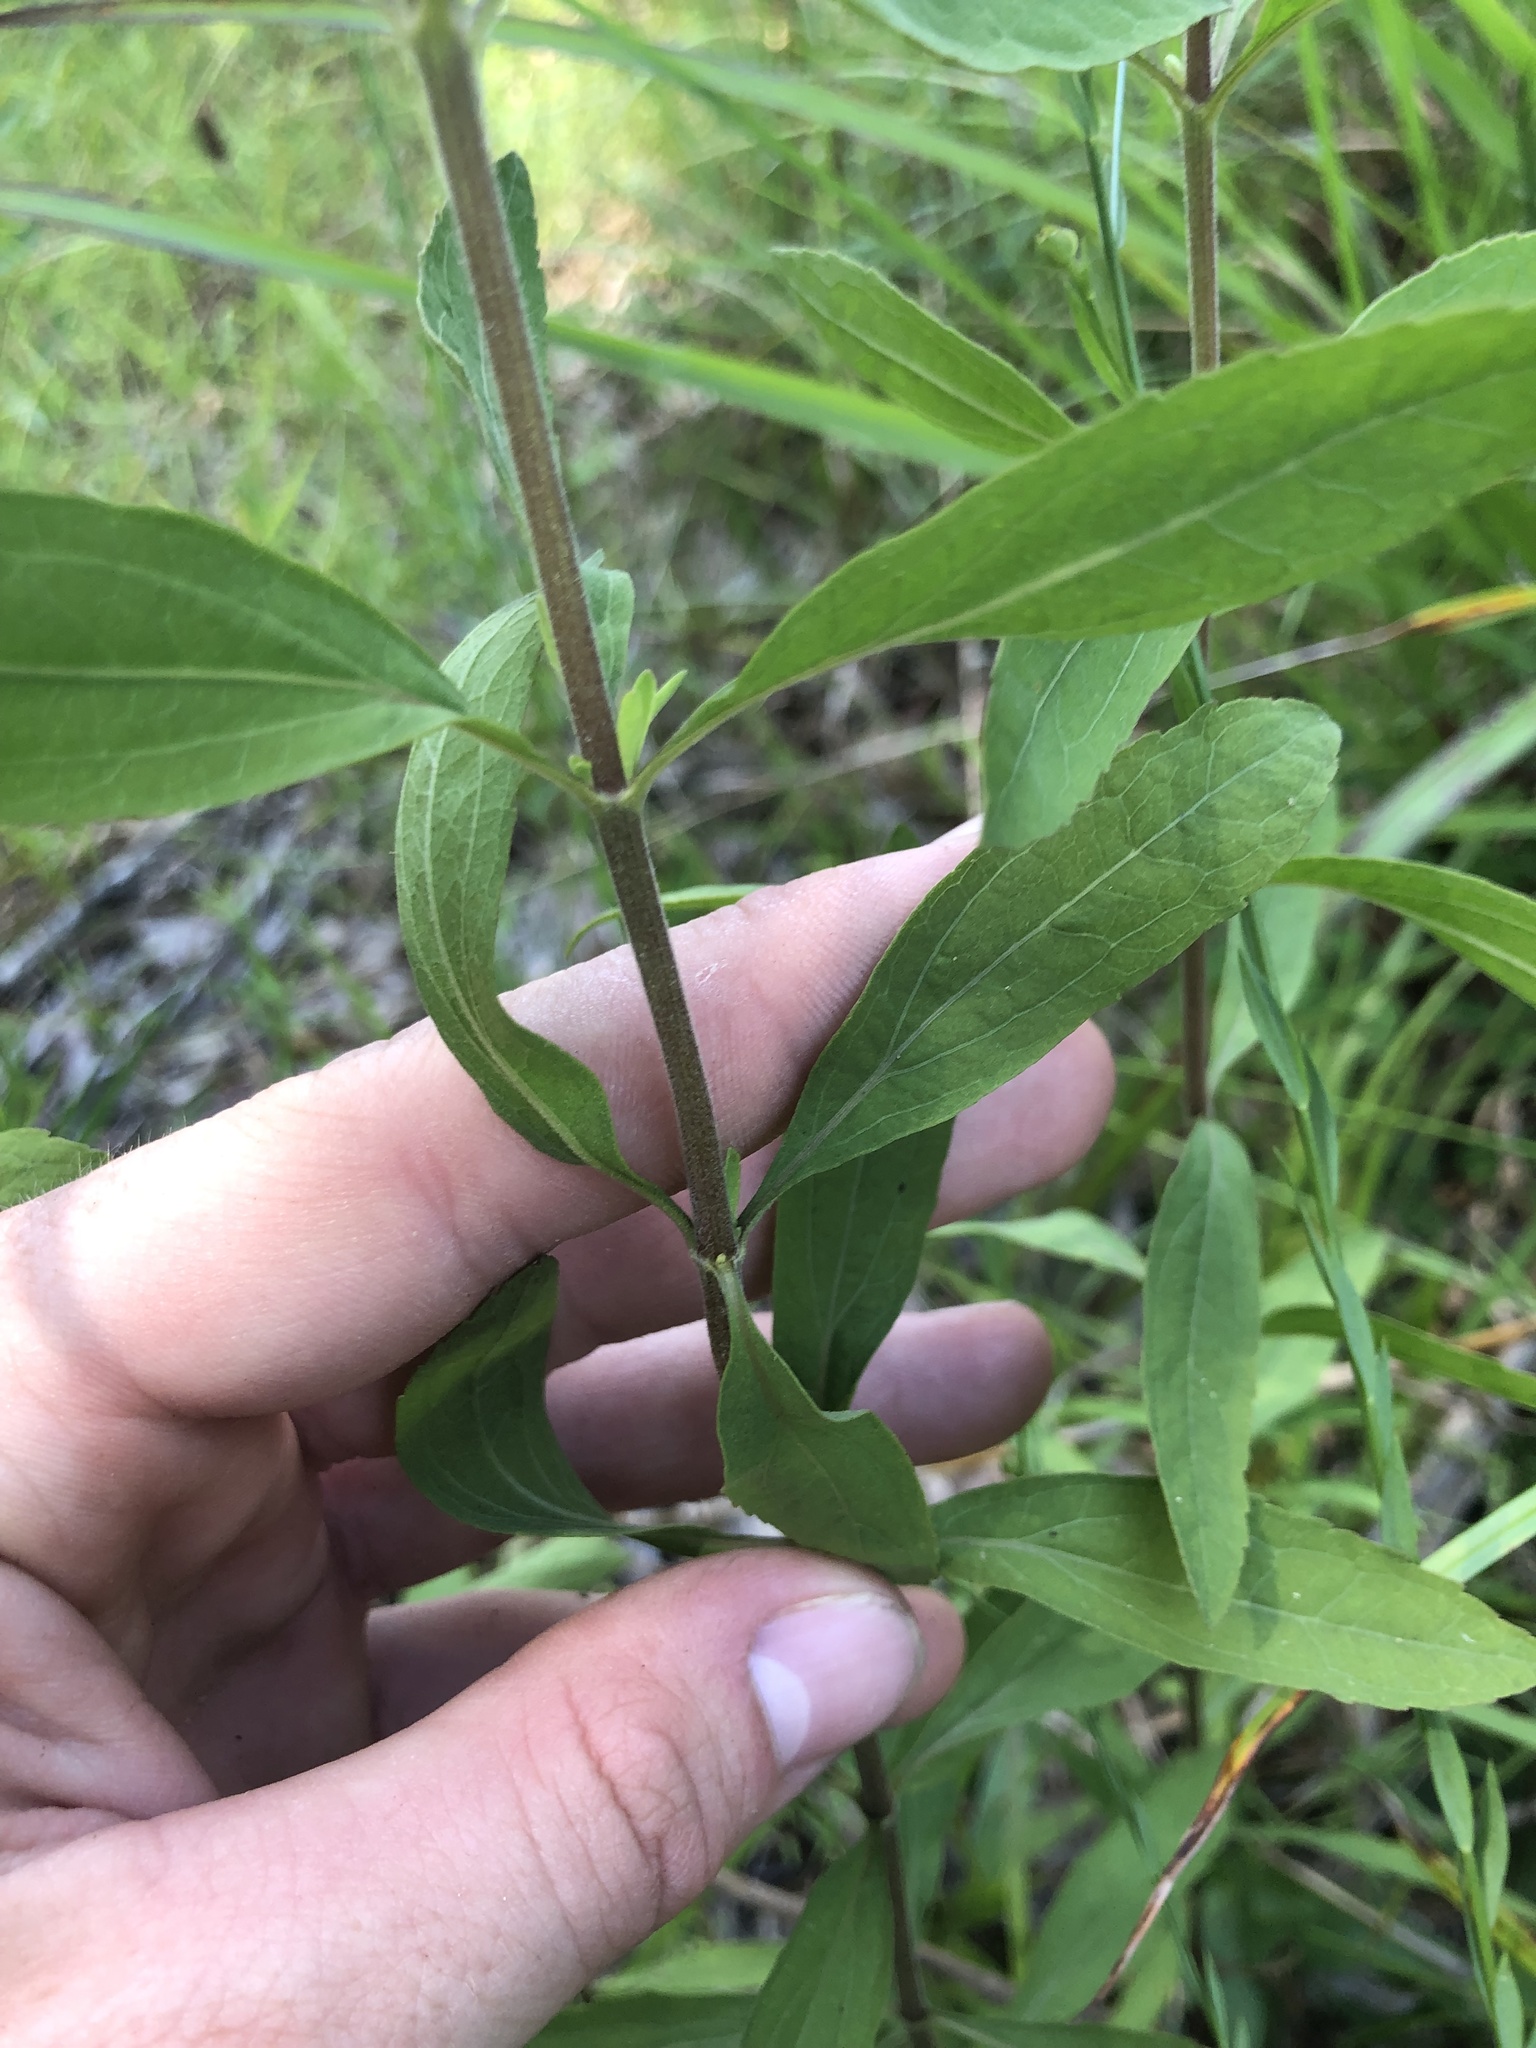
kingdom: Plantae
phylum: Tracheophyta
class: Magnoliopsida
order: Asterales
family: Asteraceae
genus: Eupatorium
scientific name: Eupatorium semiserratum
